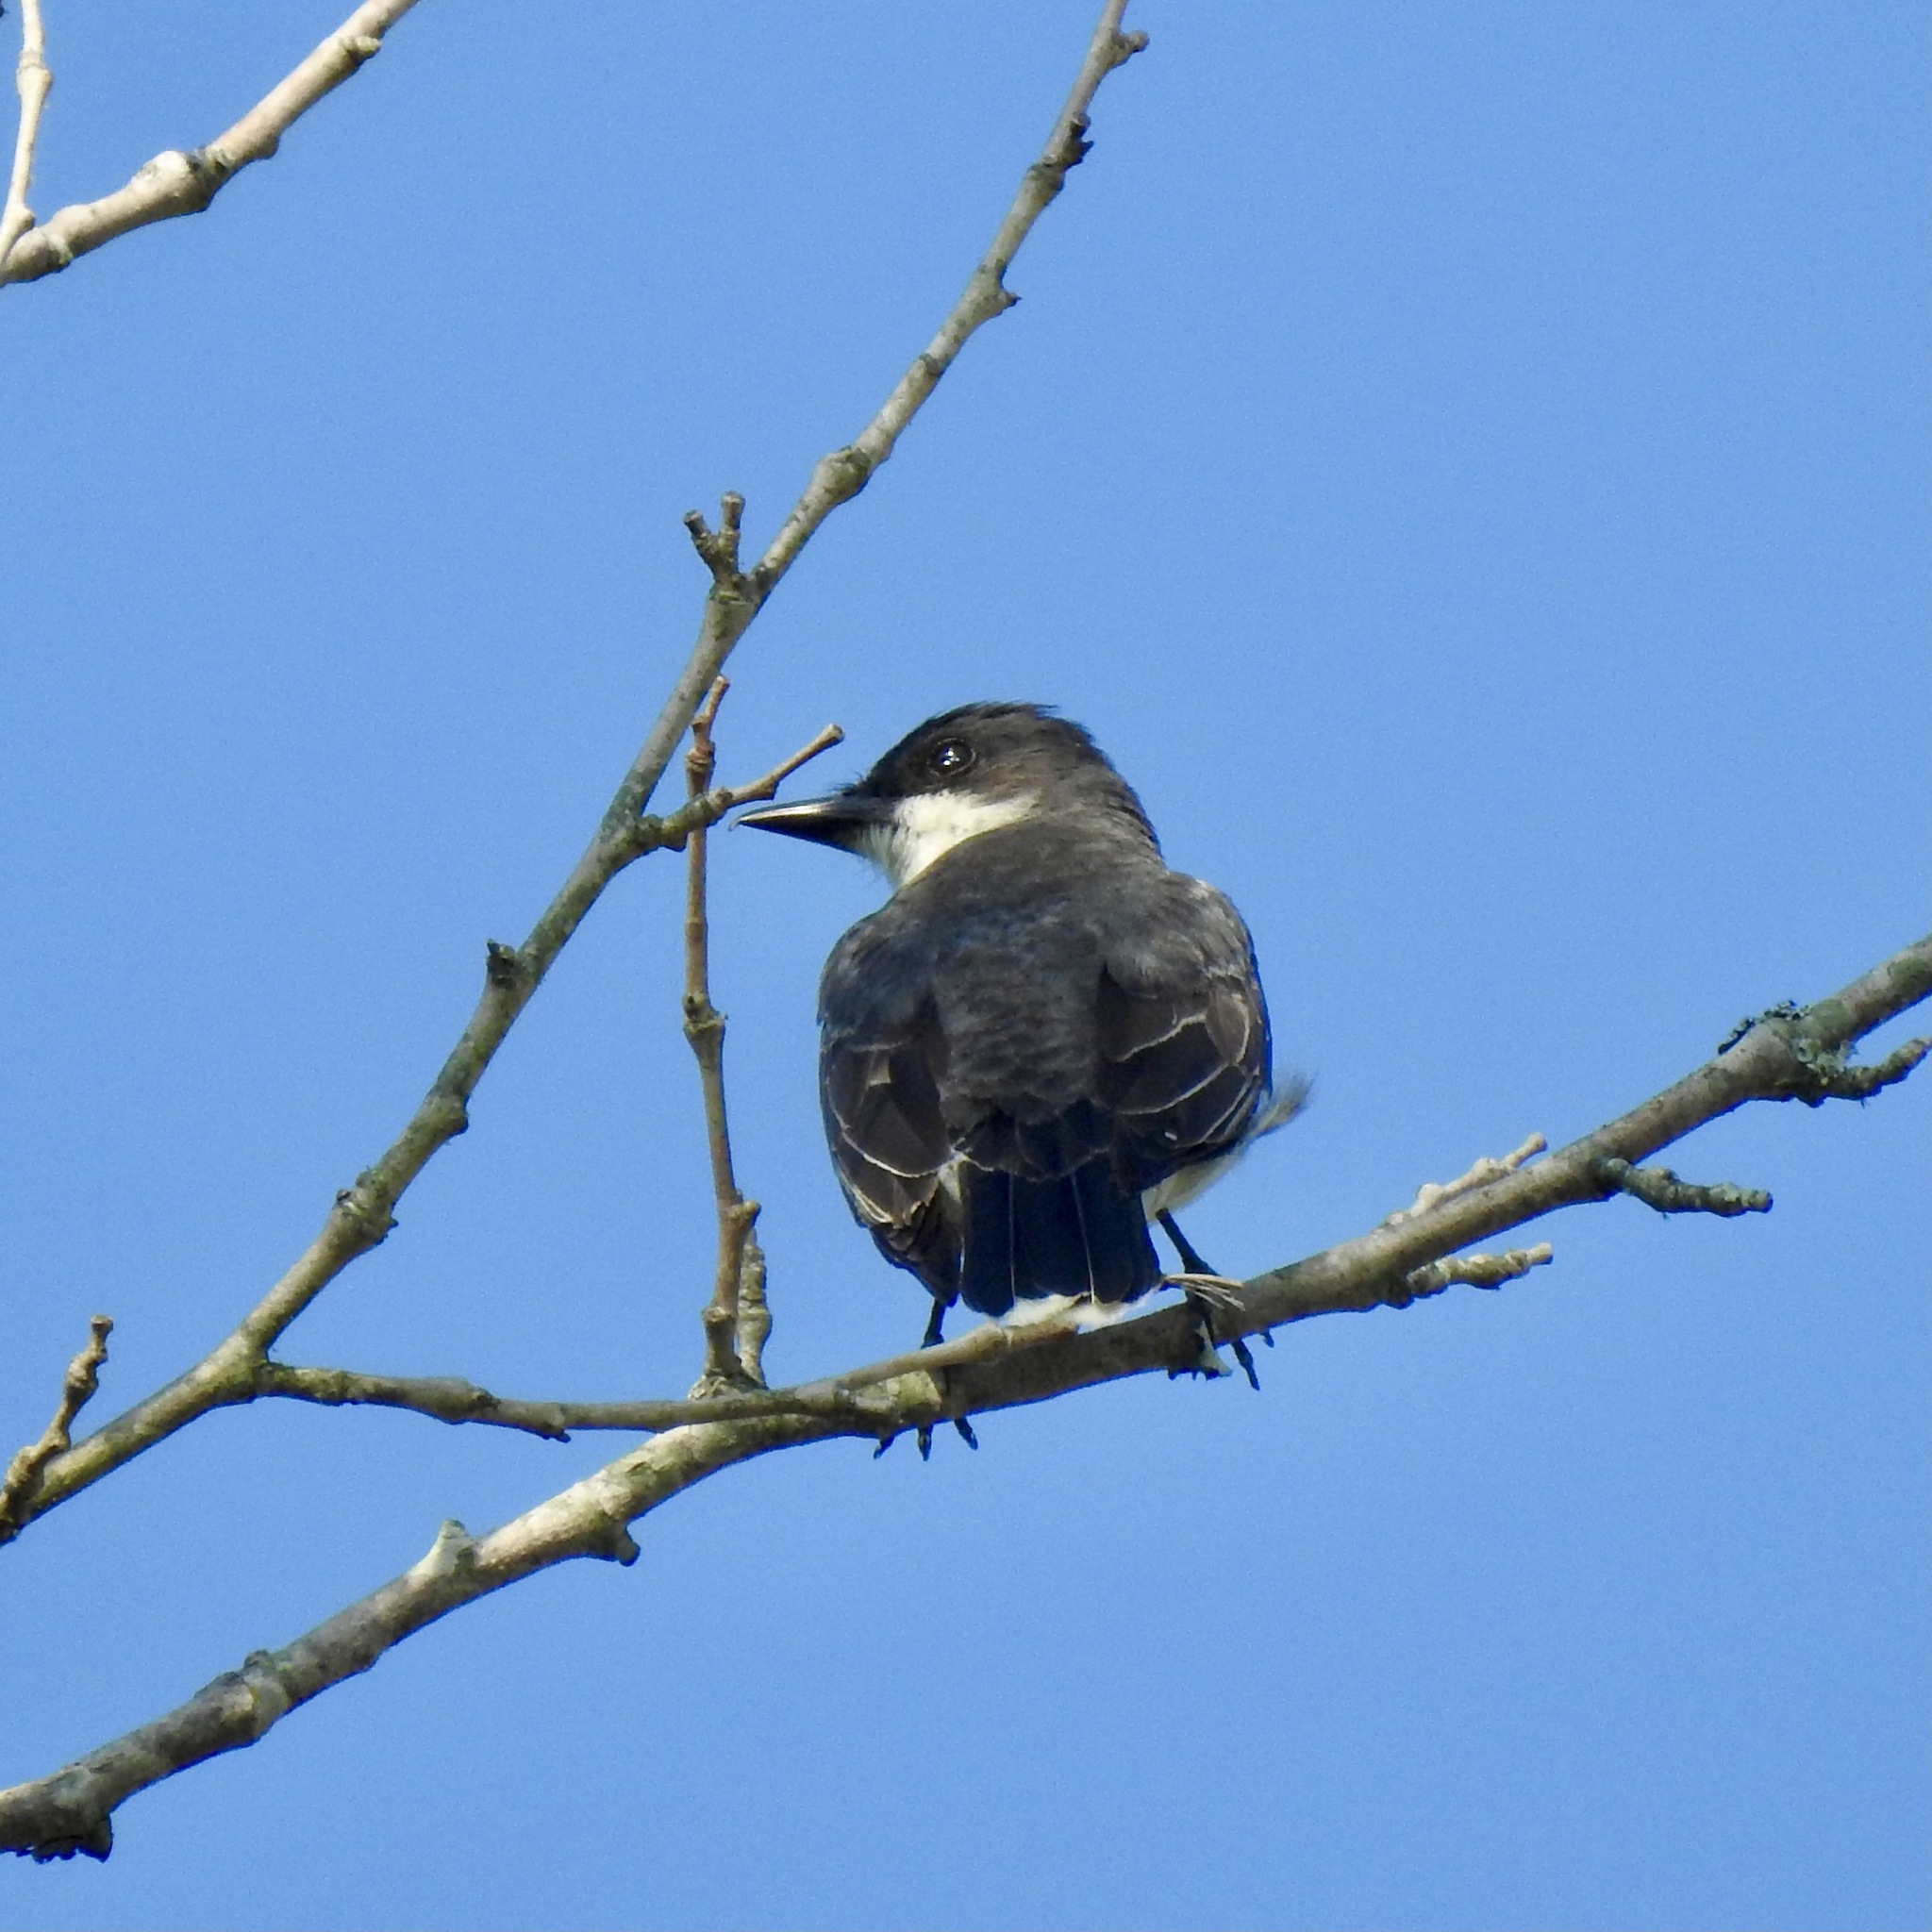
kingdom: Animalia
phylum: Chordata
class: Aves
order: Passeriformes
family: Tyrannidae
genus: Tyrannus
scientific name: Tyrannus tyrannus
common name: Eastern kingbird
